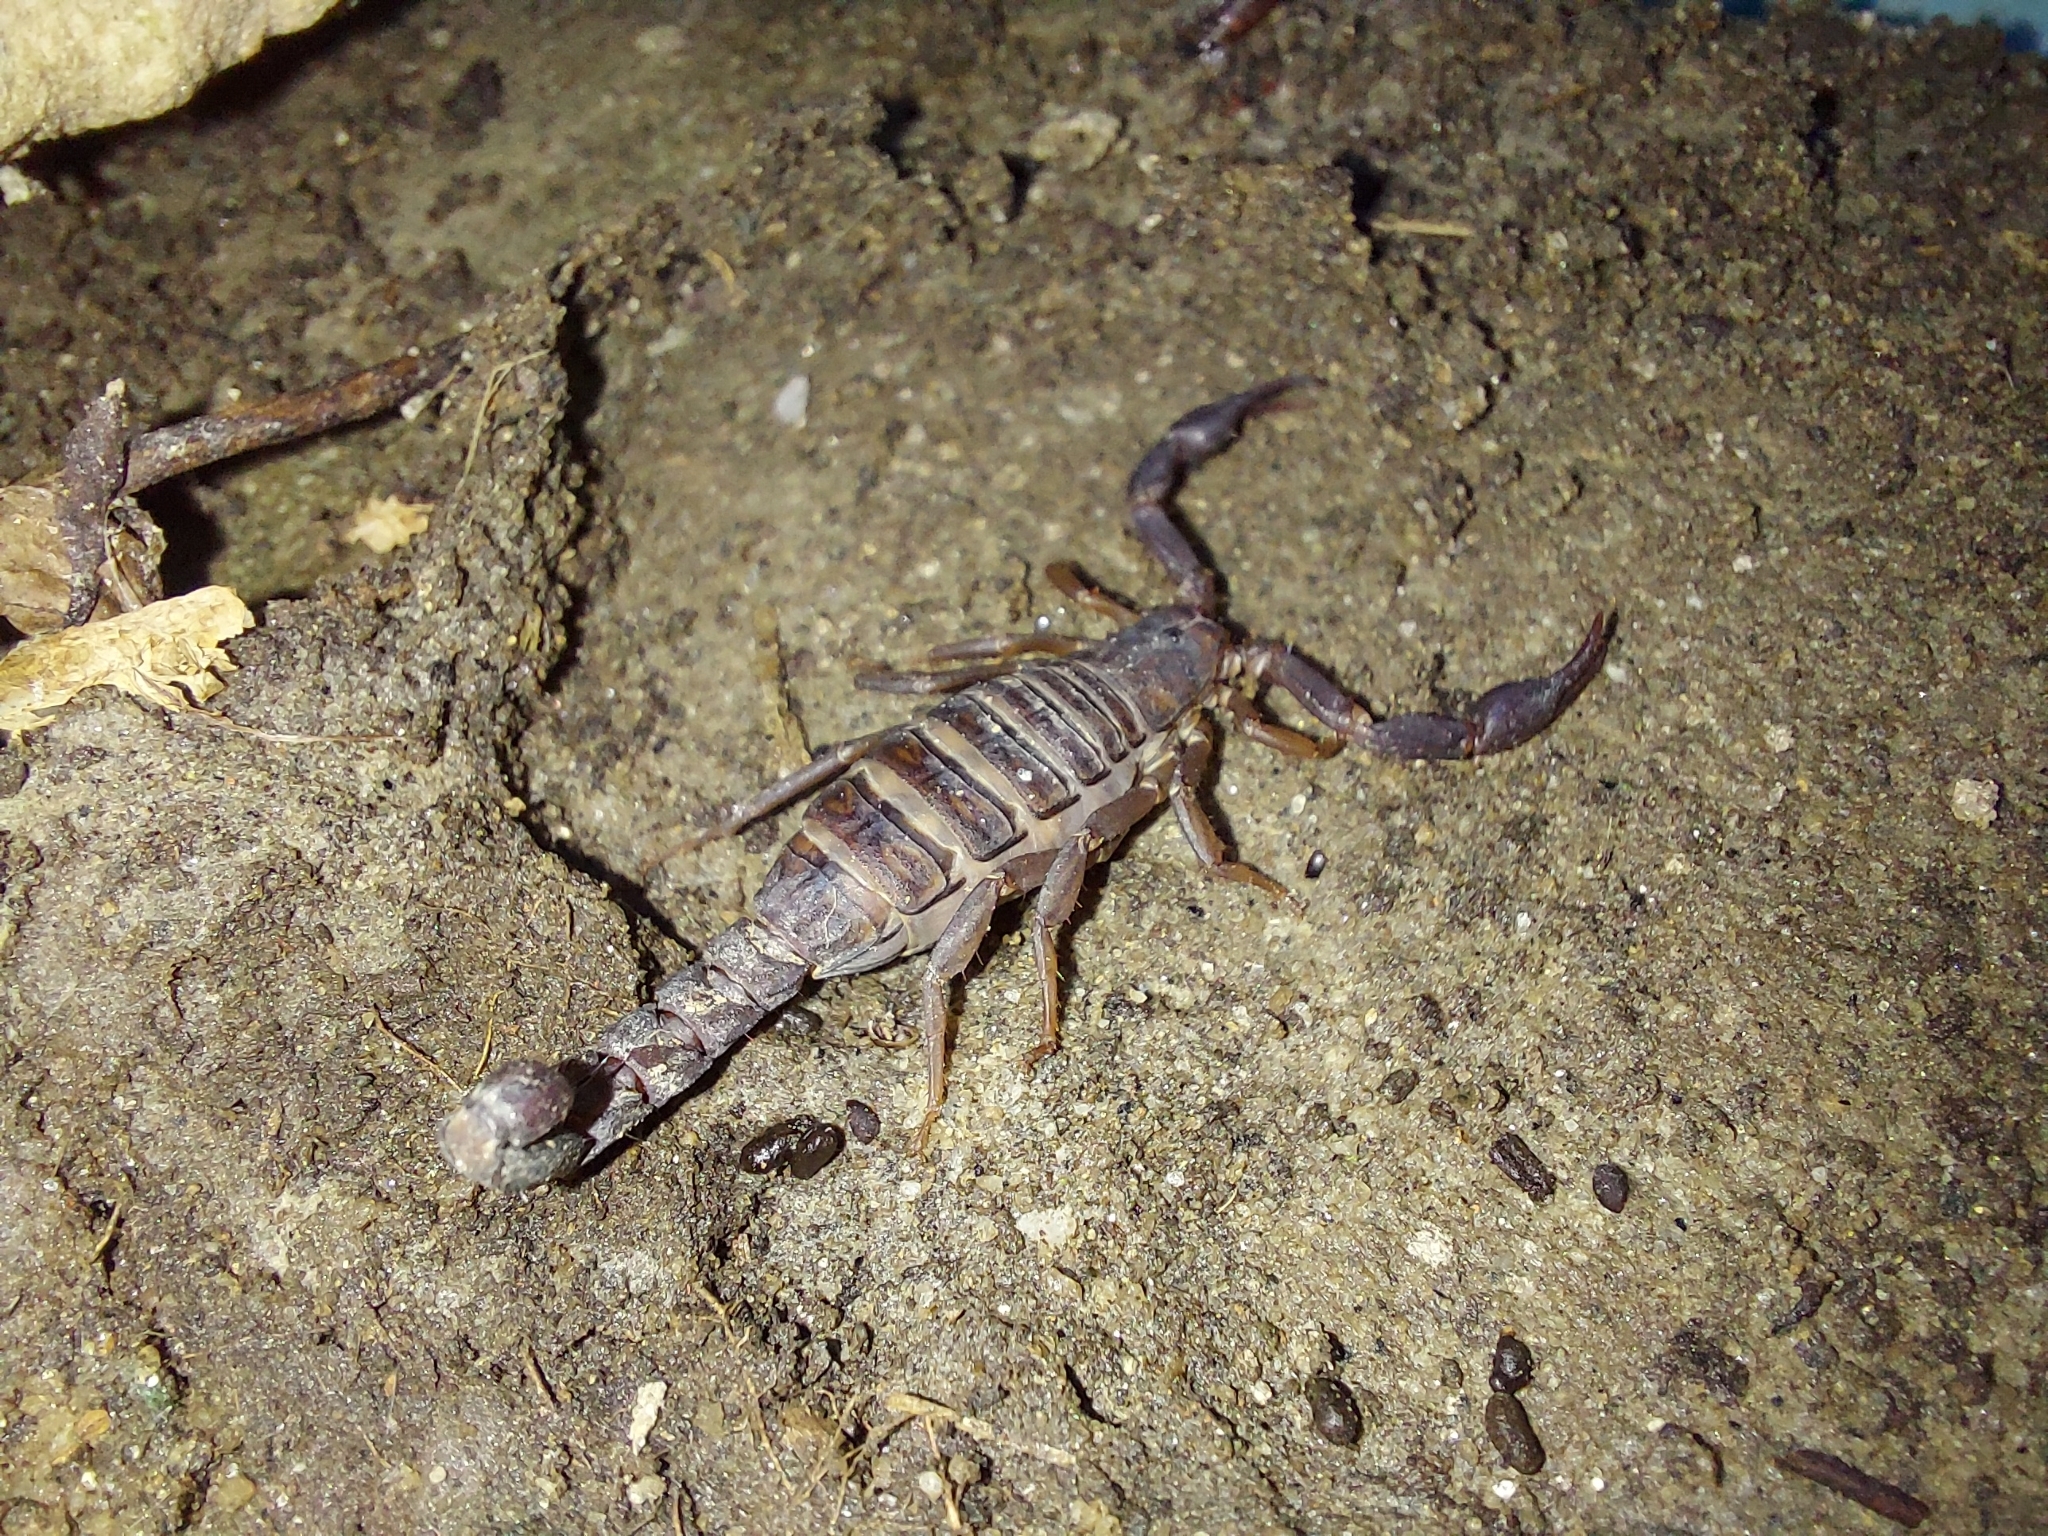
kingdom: Animalia
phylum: Arthropoda
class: Arachnida
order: Scorpiones
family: Vaejovidae
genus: Vaejovis
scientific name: Vaejovis carolinianus
